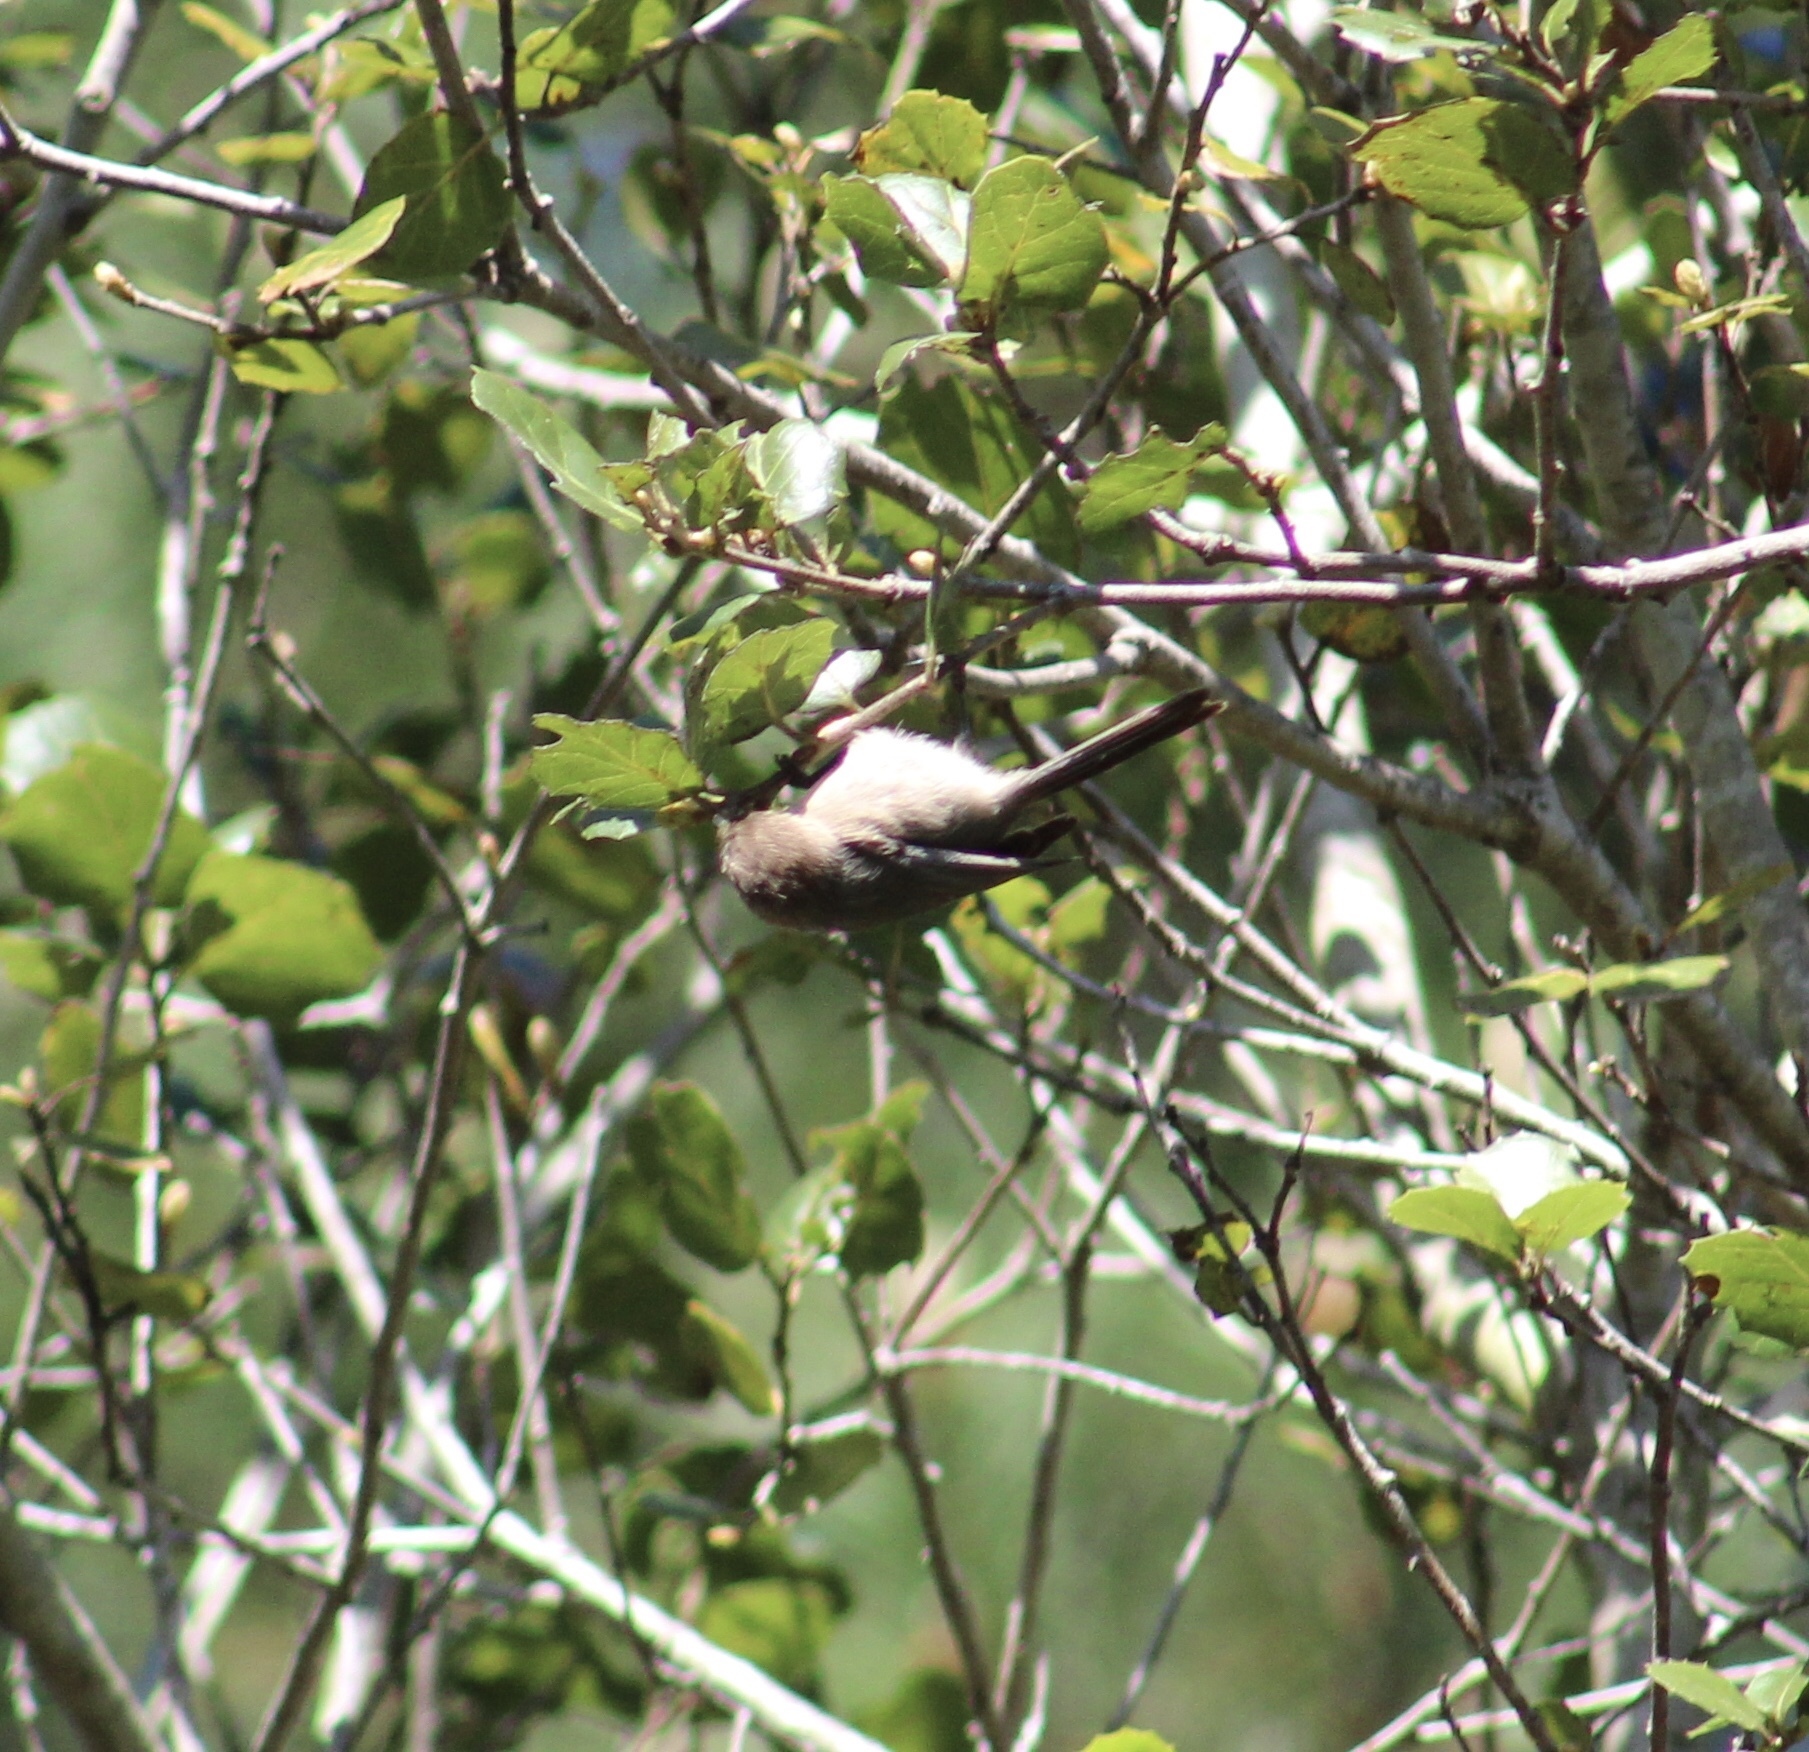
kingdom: Animalia
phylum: Chordata
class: Aves
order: Passeriformes
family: Aegithalidae
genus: Psaltriparus
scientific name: Psaltriparus minimus
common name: American bushtit
